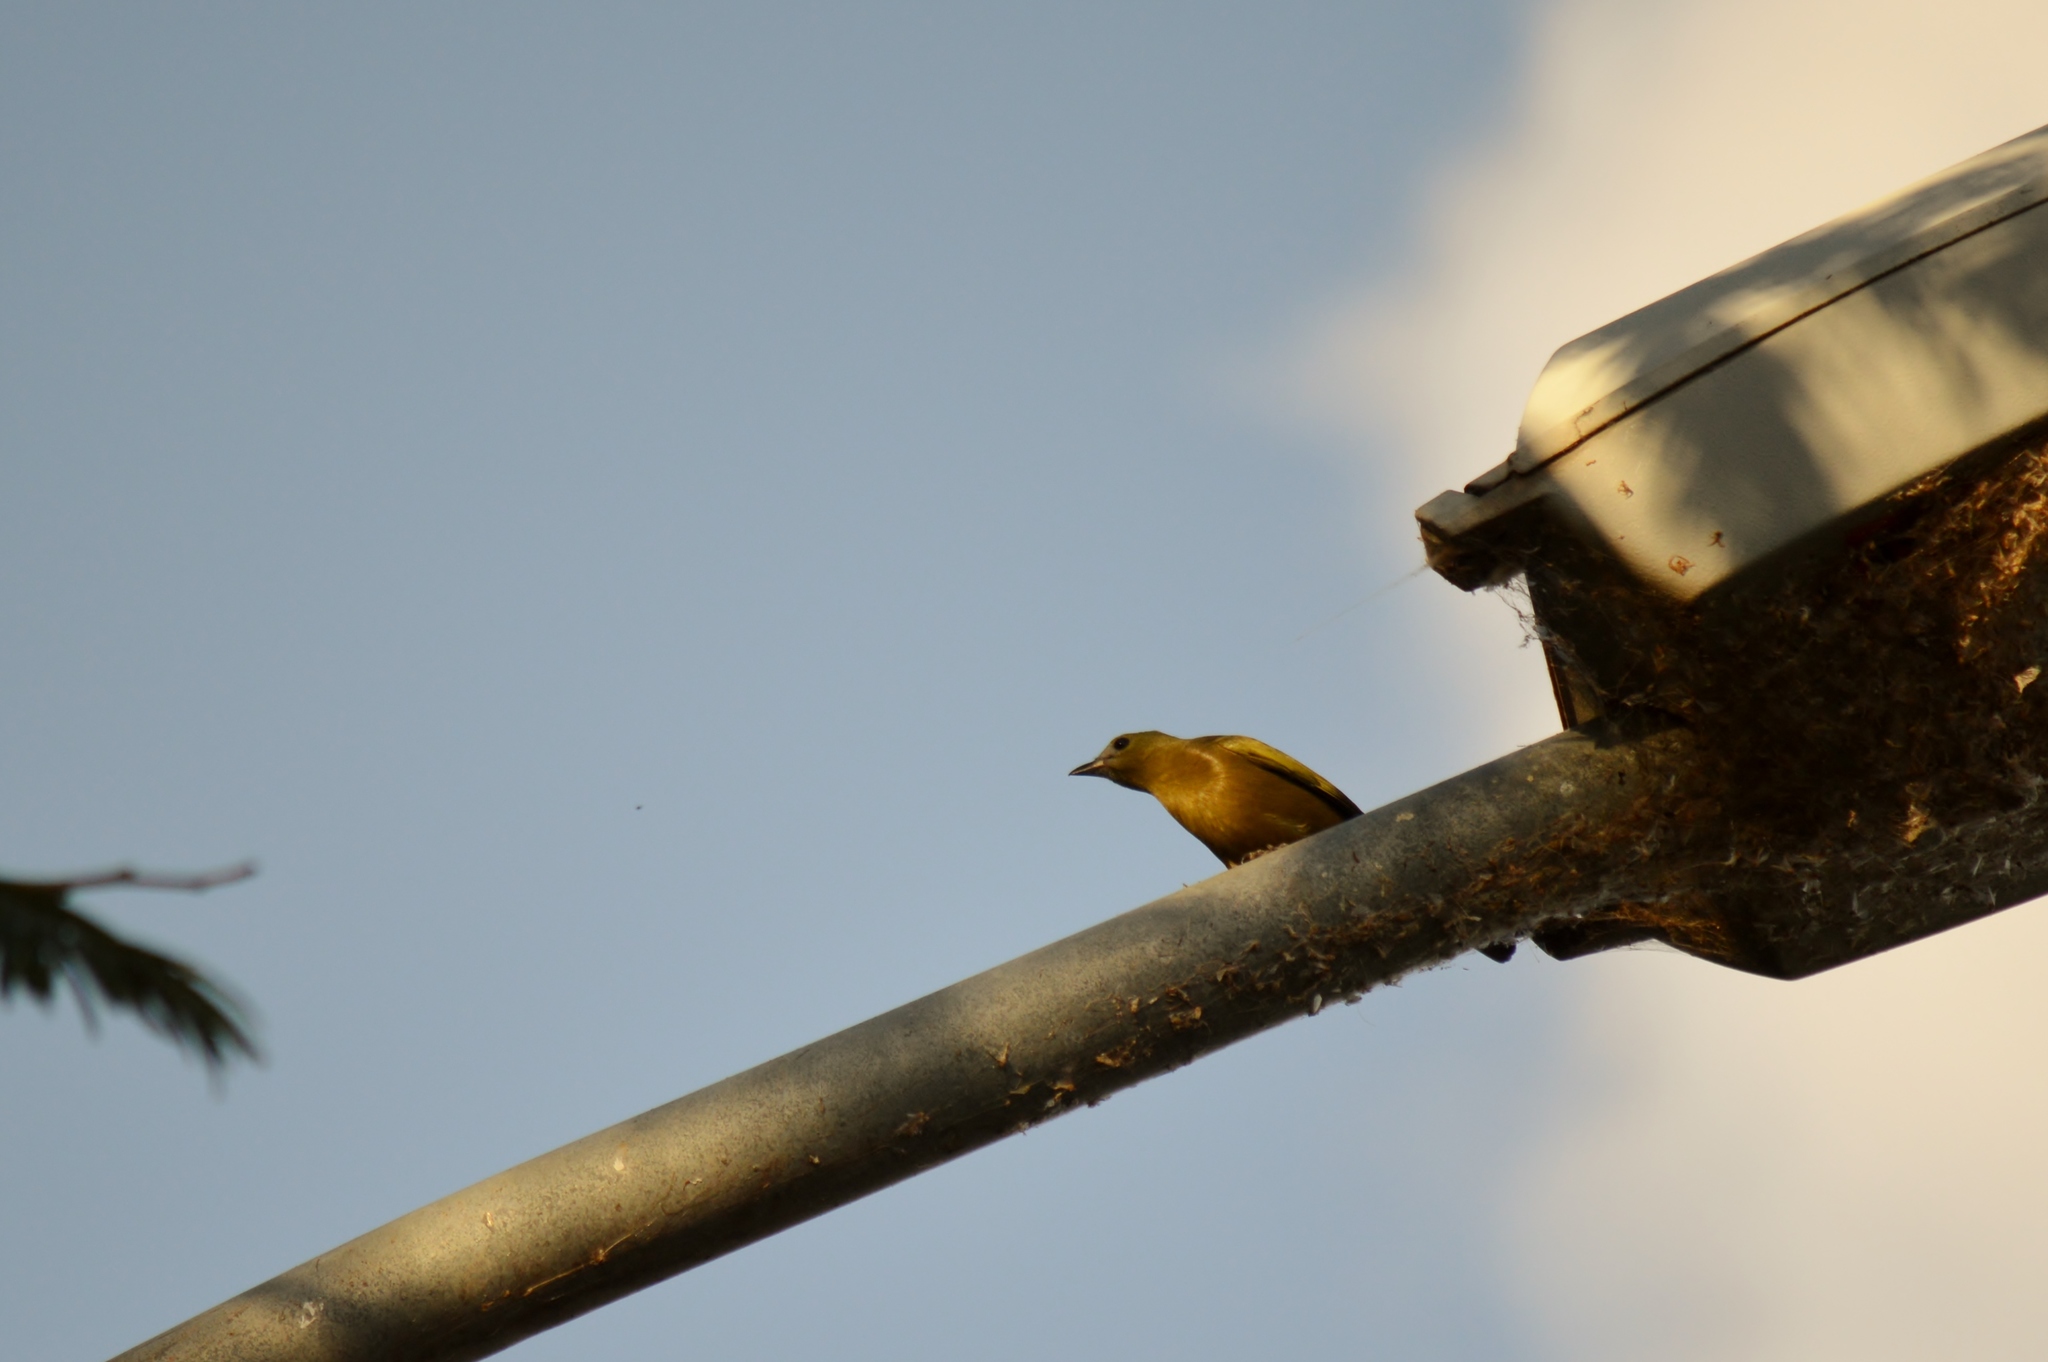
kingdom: Animalia
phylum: Chordata
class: Aves
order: Passeriformes
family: Thraupidae
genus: Thraupis
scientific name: Thraupis palmarum
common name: Palm tanager
